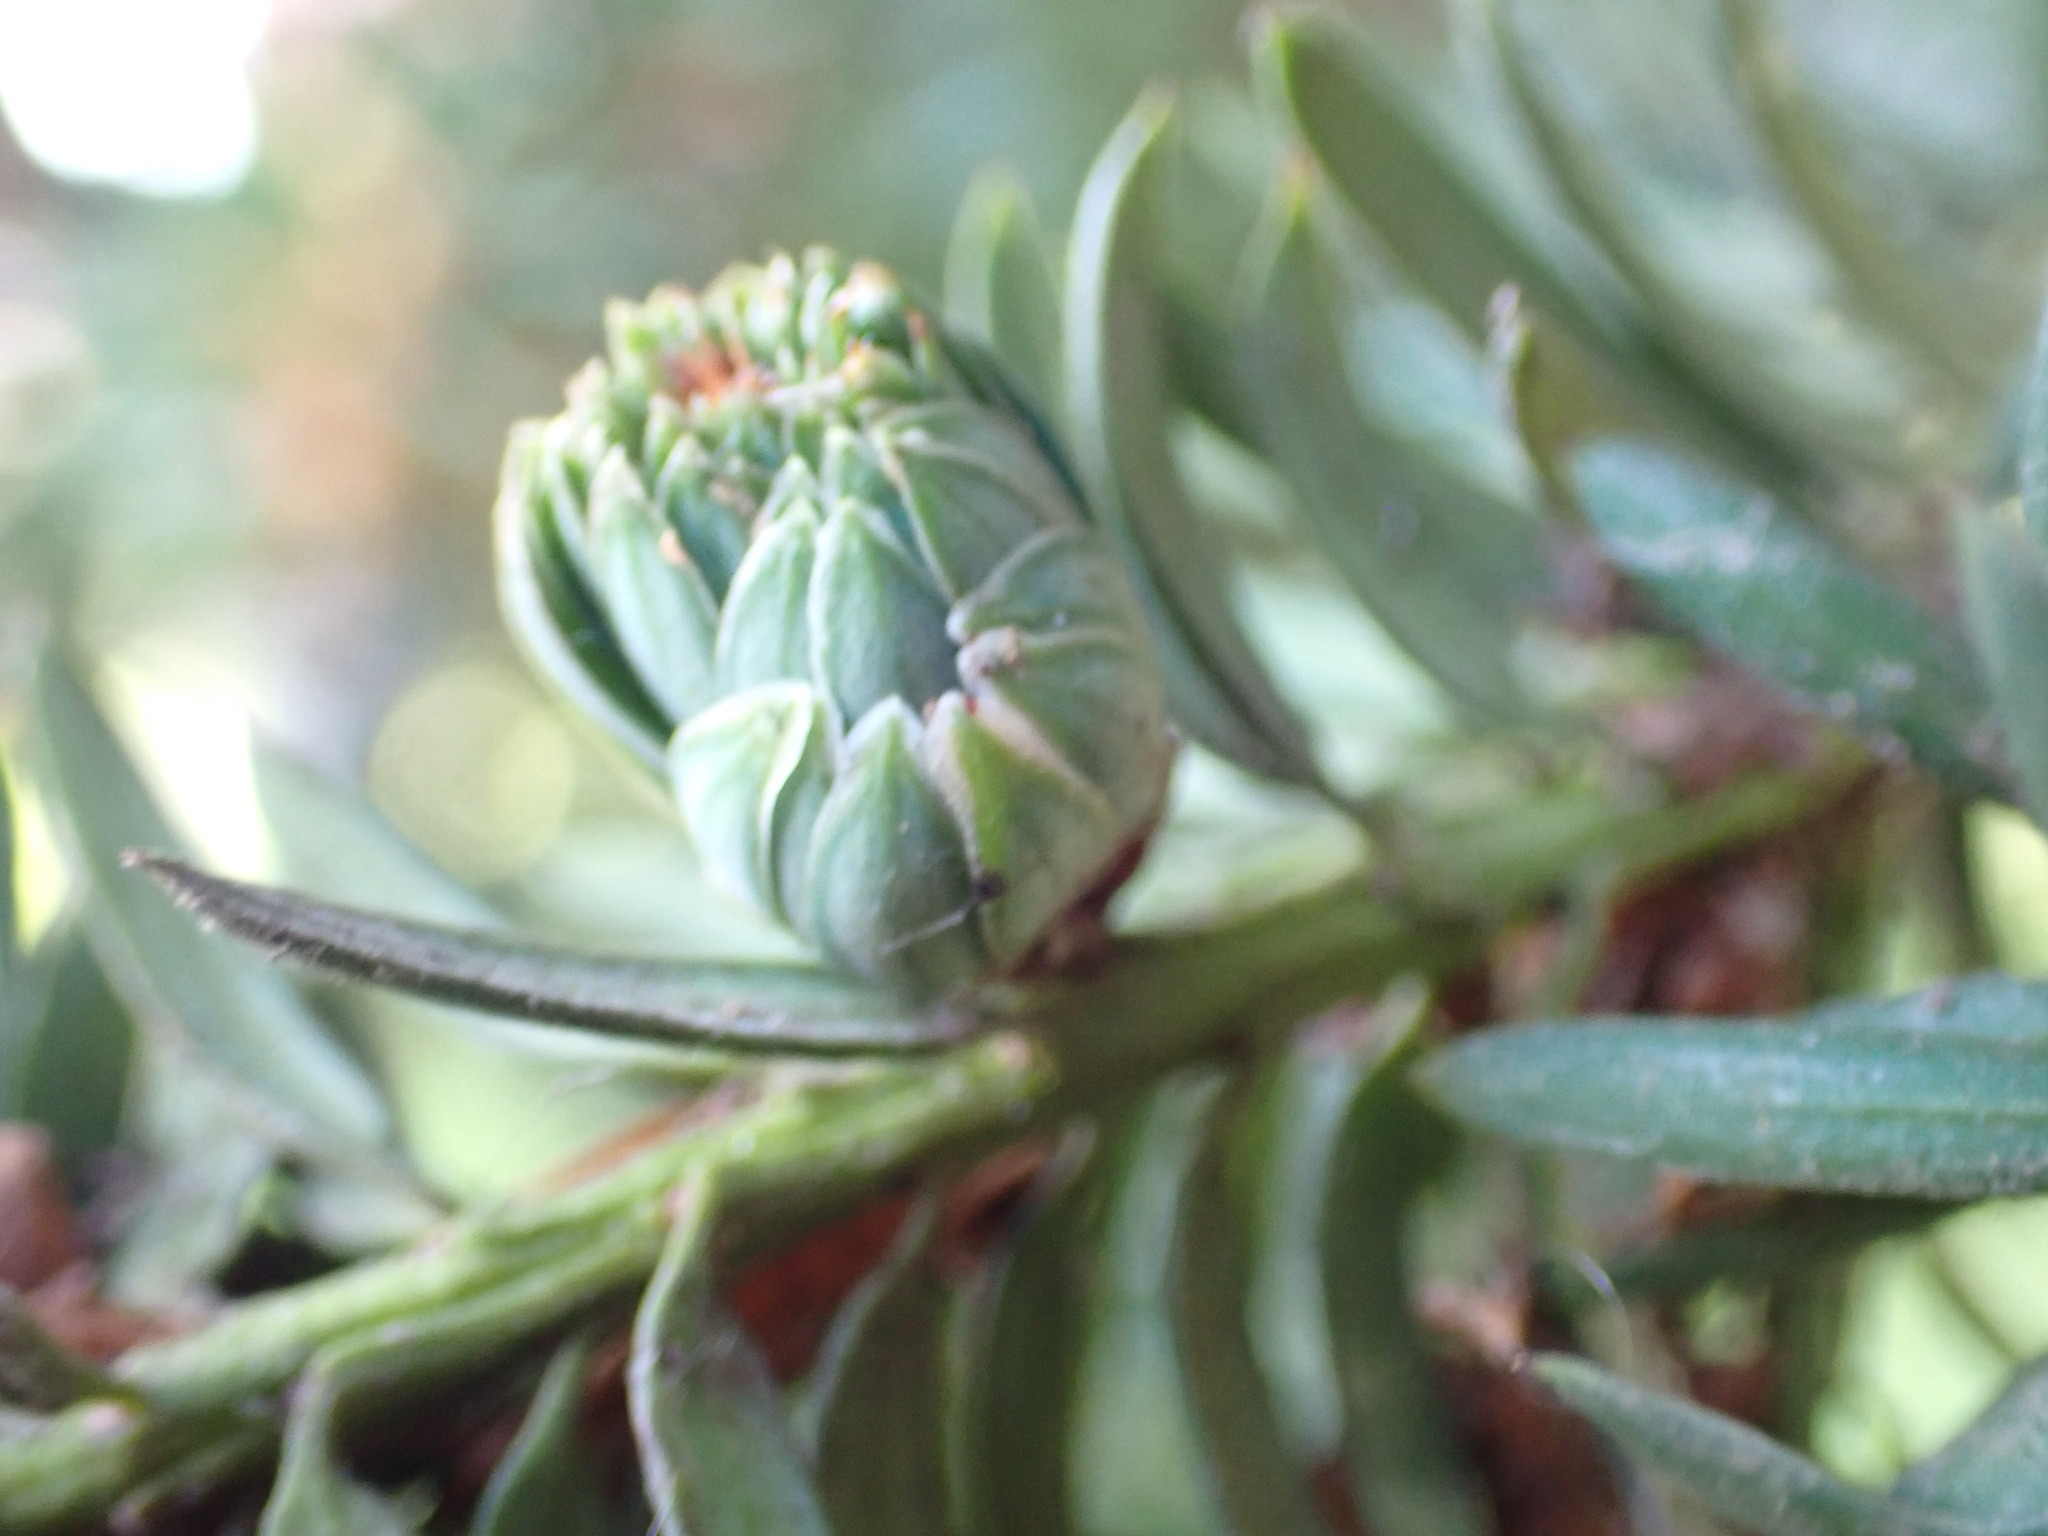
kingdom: Animalia
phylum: Arthropoda
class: Insecta
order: Diptera
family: Cecidomyiidae
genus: Taxomyia
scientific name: Taxomyia taxi
